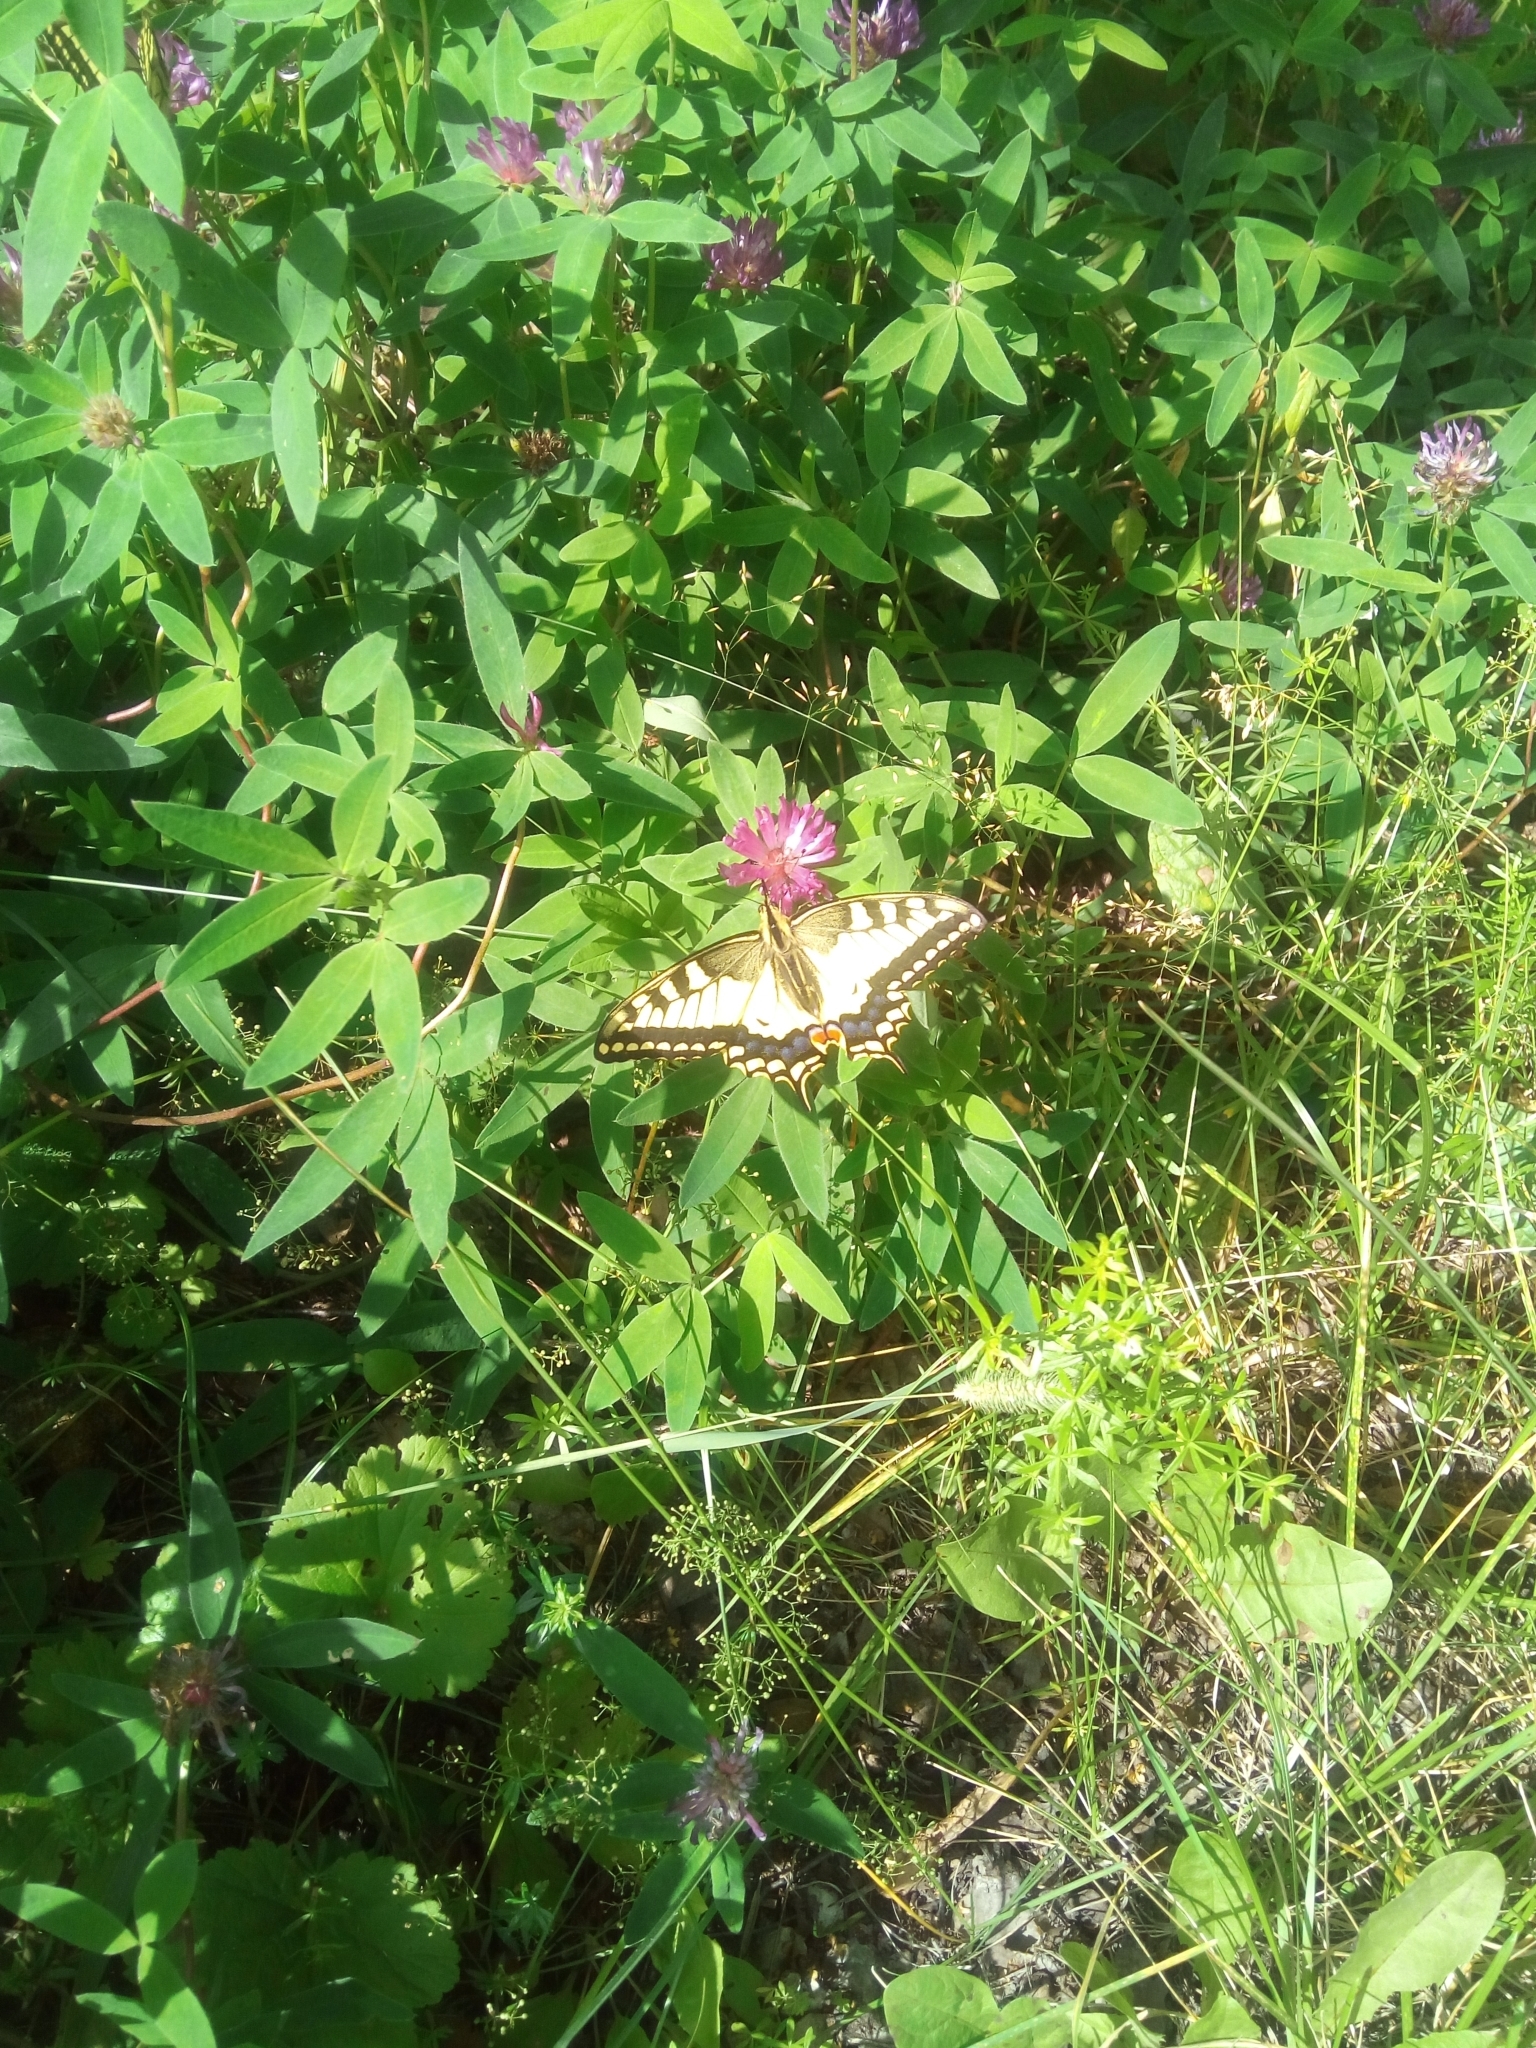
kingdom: Animalia
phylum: Arthropoda
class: Insecta
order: Lepidoptera
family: Papilionidae
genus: Papilio
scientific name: Papilio machaon
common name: Swallowtail
